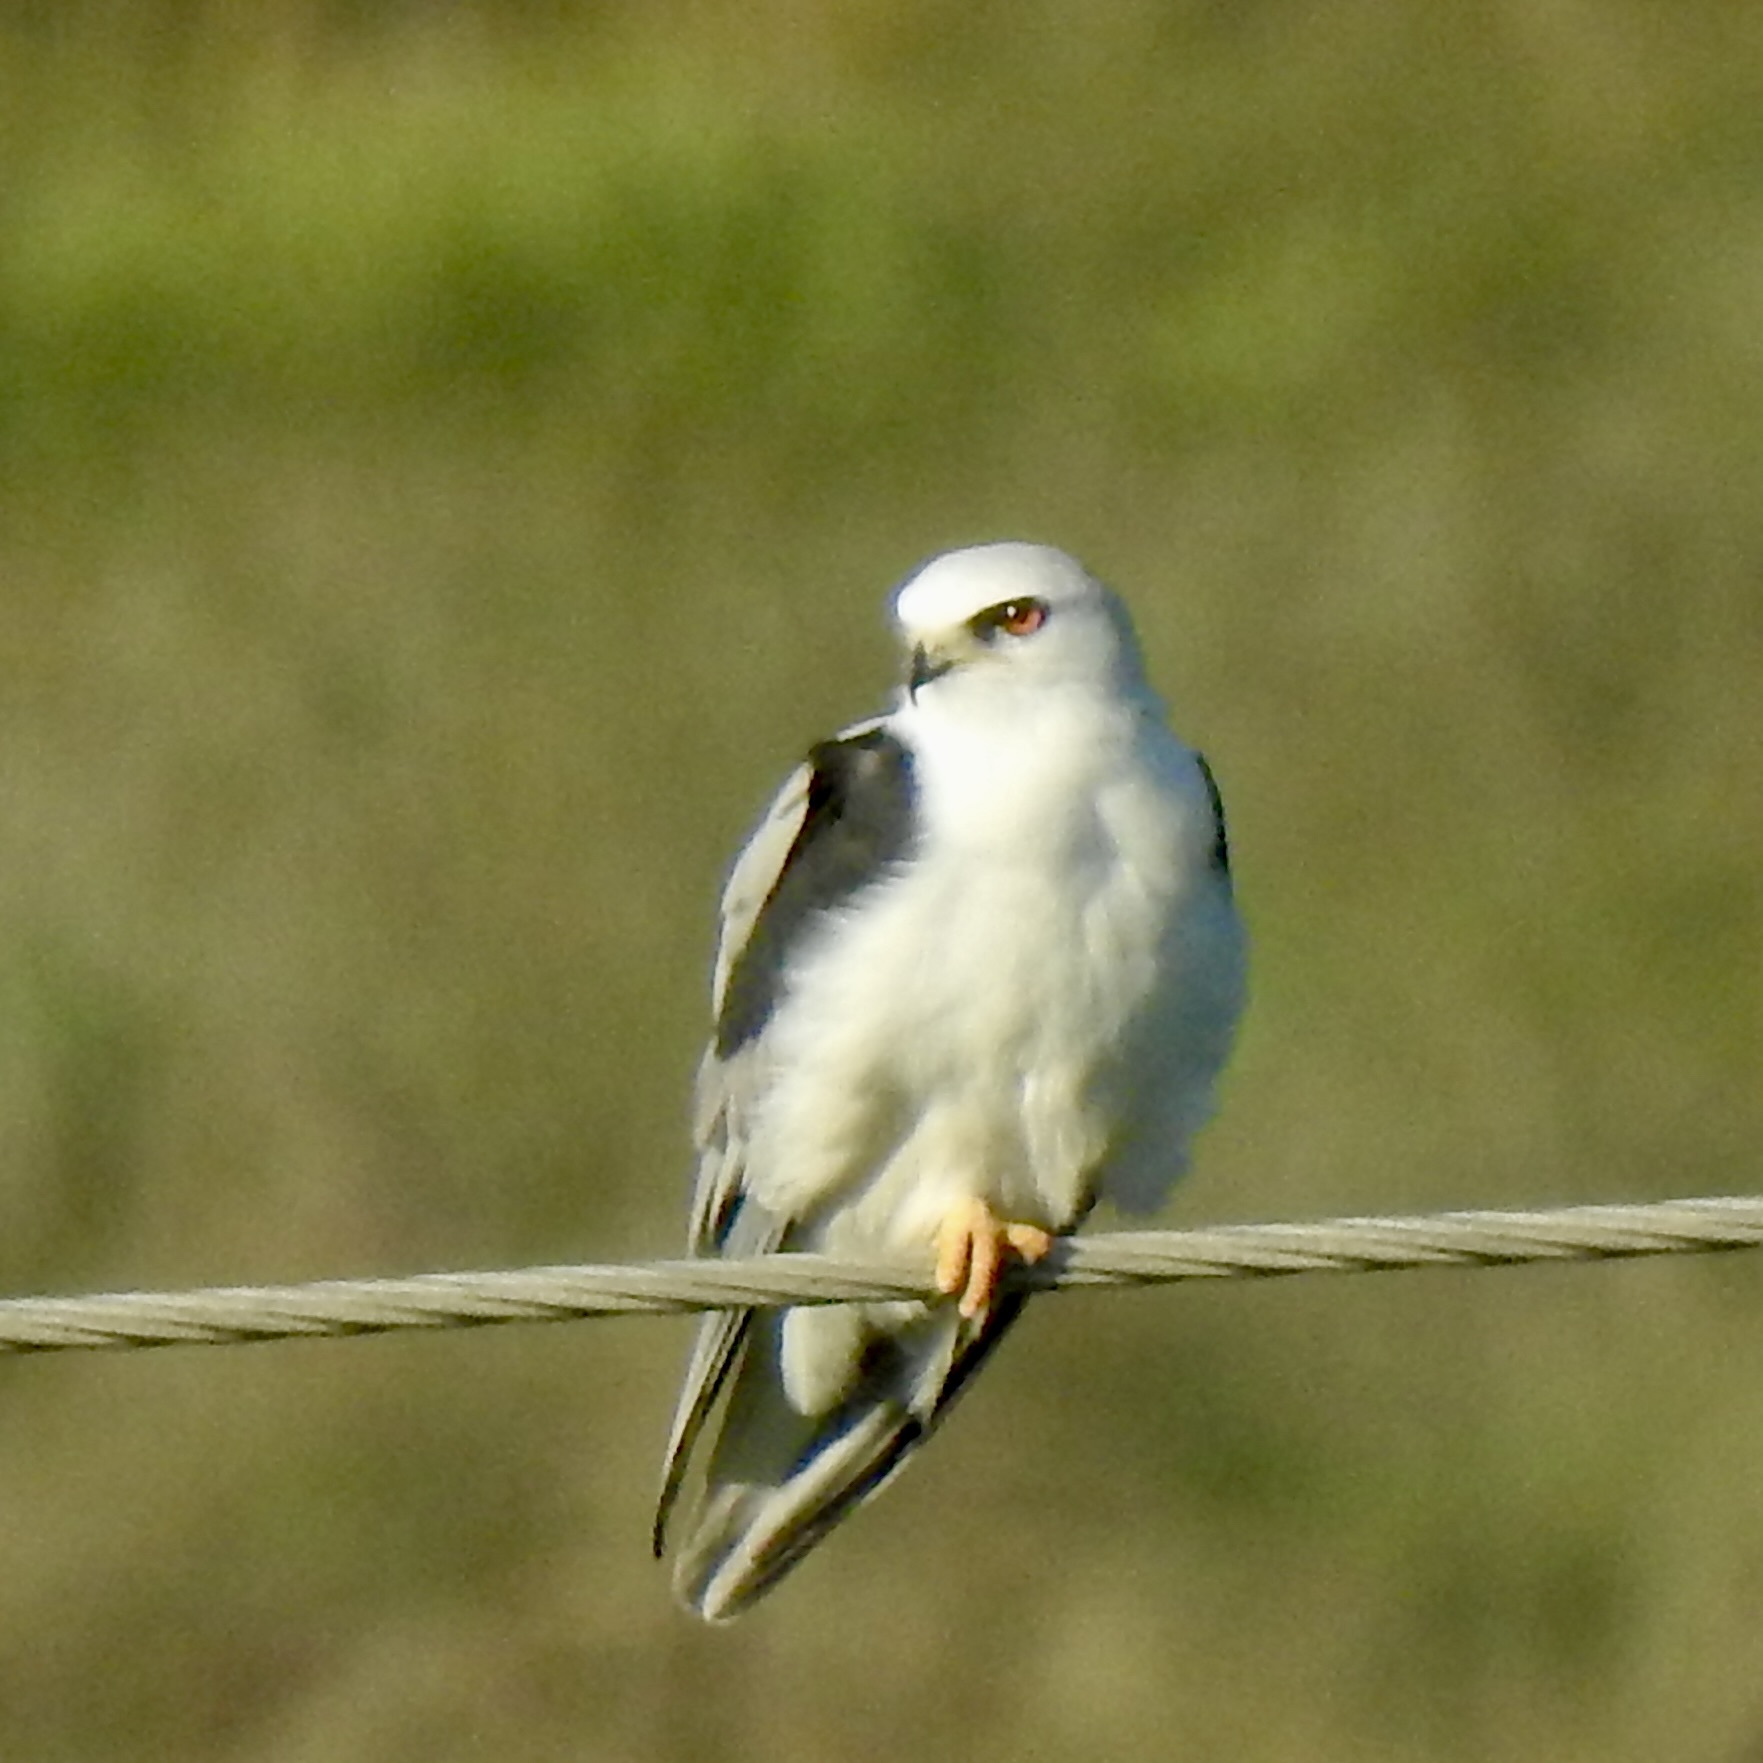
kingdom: Animalia
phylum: Chordata
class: Aves
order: Accipitriformes
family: Accipitridae
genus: Elanus
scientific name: Elanus leucurus
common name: White-tailed kite
